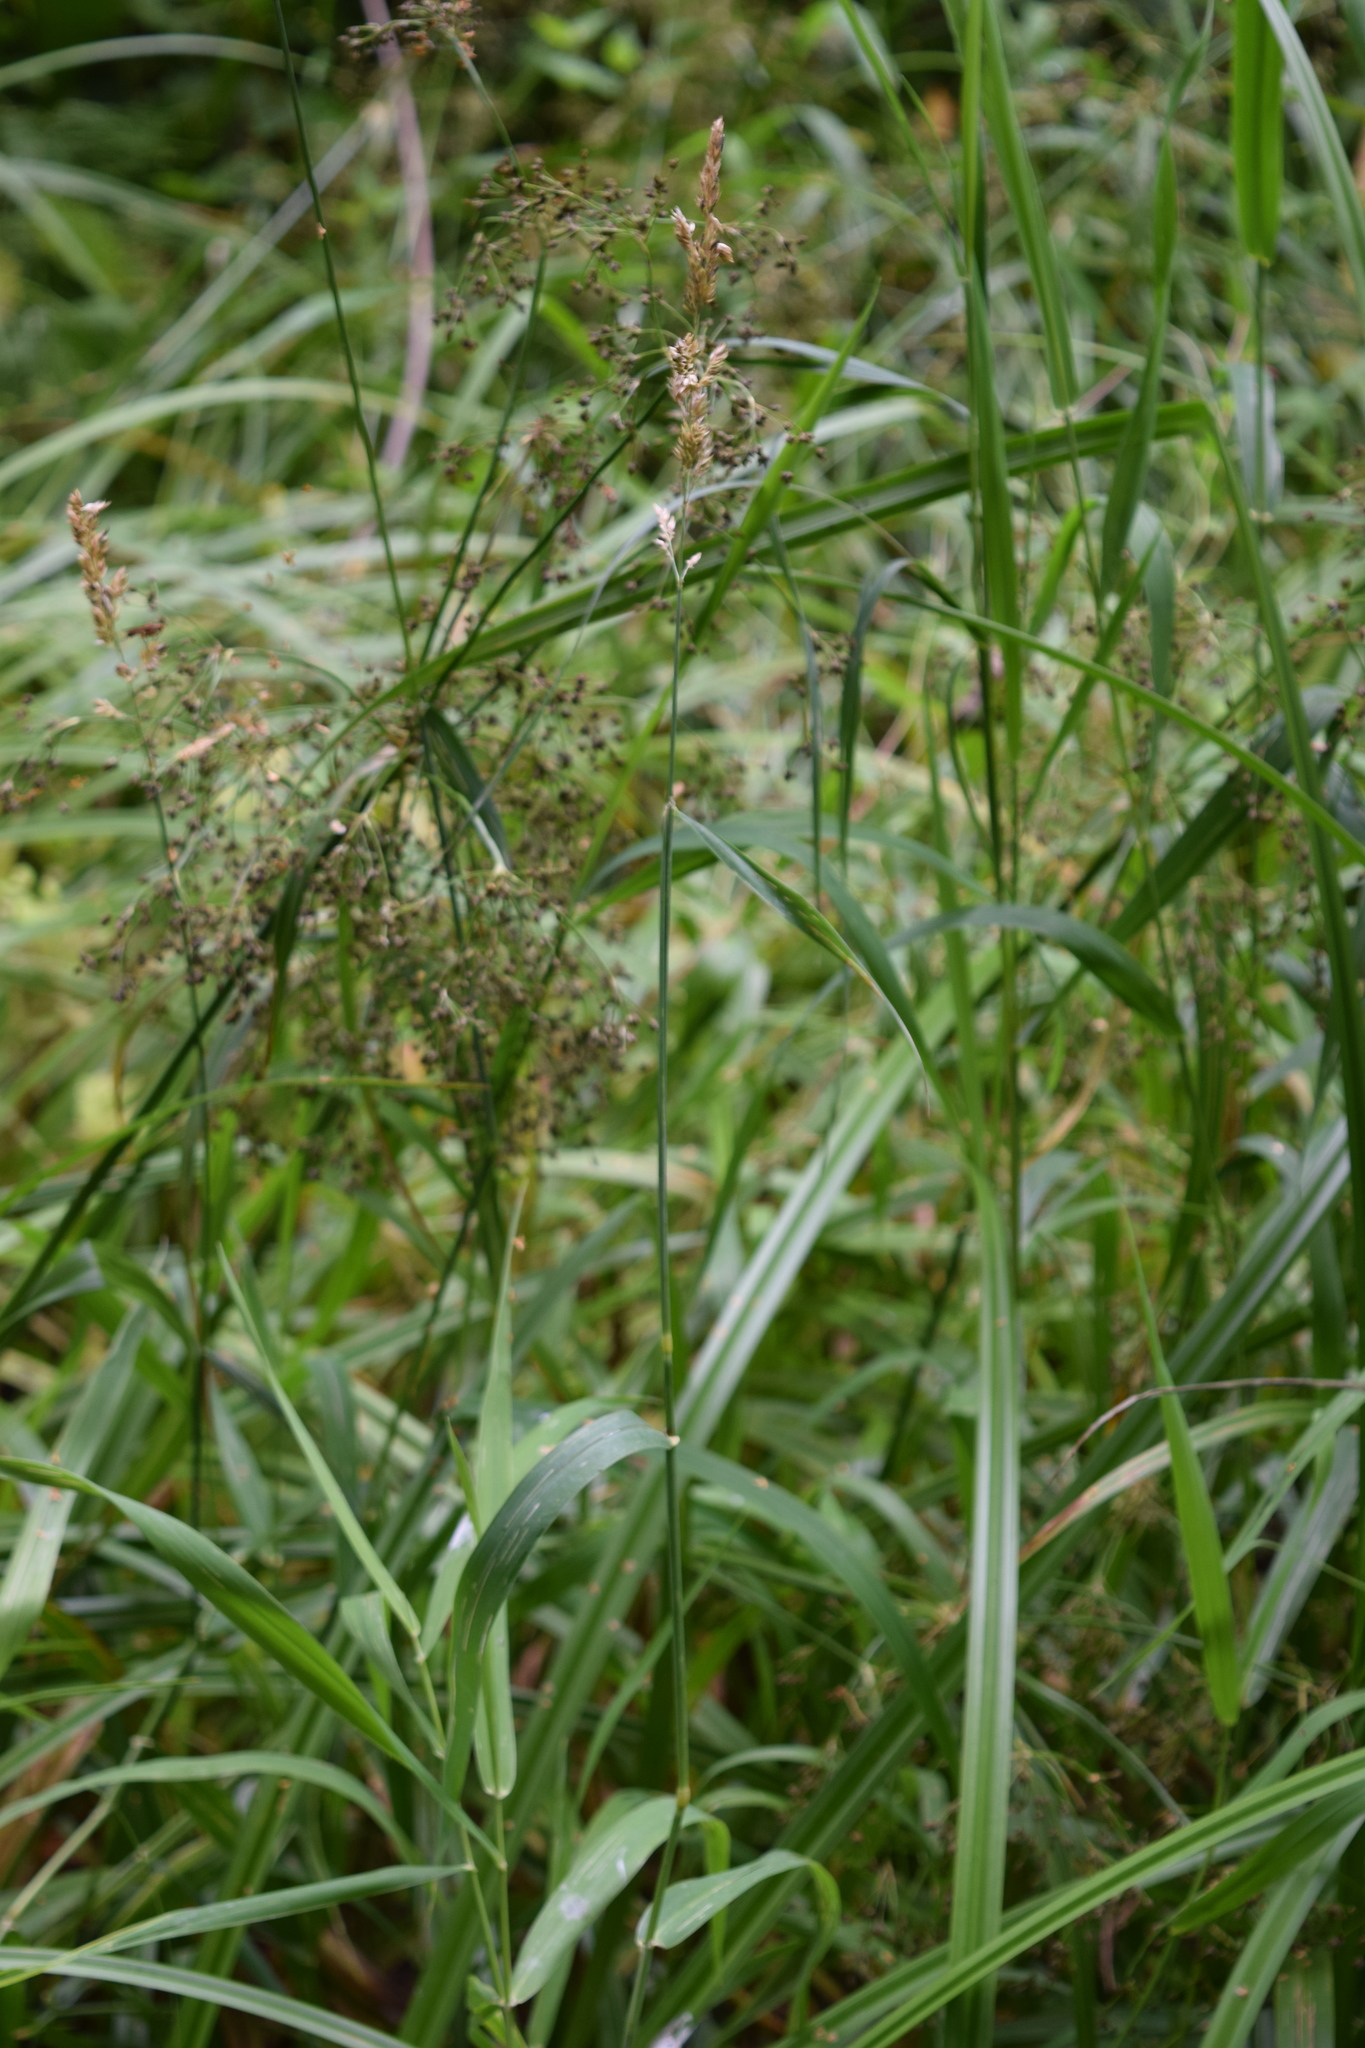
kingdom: Plantae
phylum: Tracheophyta
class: Liliopsida
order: Poales
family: Cyperaceae
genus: Scirpus
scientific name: Scirpus sylvaticus
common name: Wood club-rush
